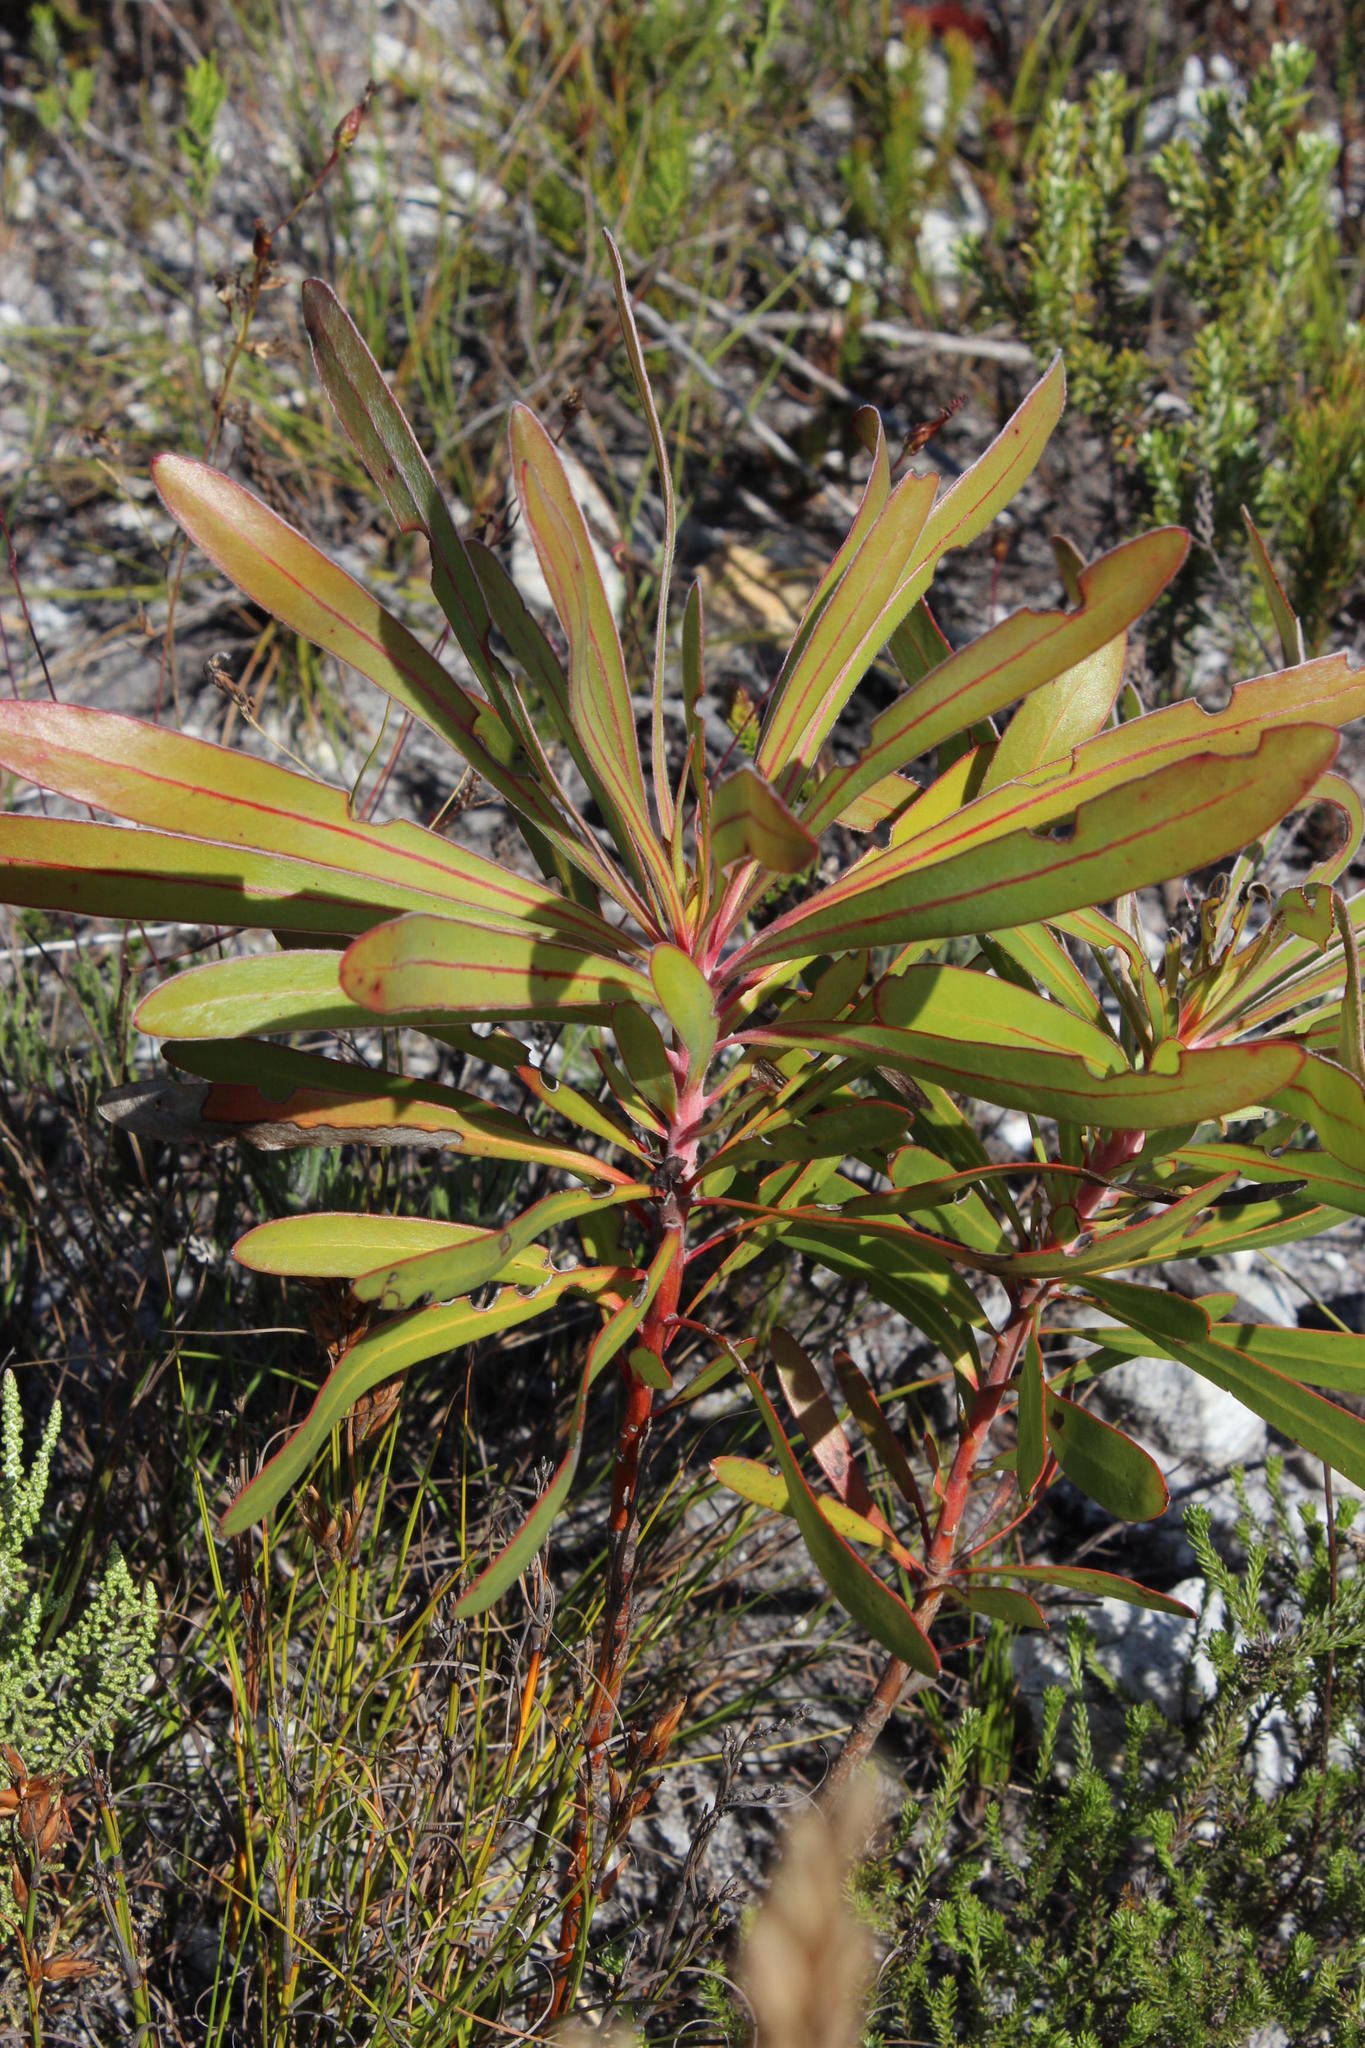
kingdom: Plantae
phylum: Tracheophyta
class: Magnoliopsida
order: Proteales
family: Proteaceae
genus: Protea
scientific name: Protea longifolia
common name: Long-leaf sugarbush
